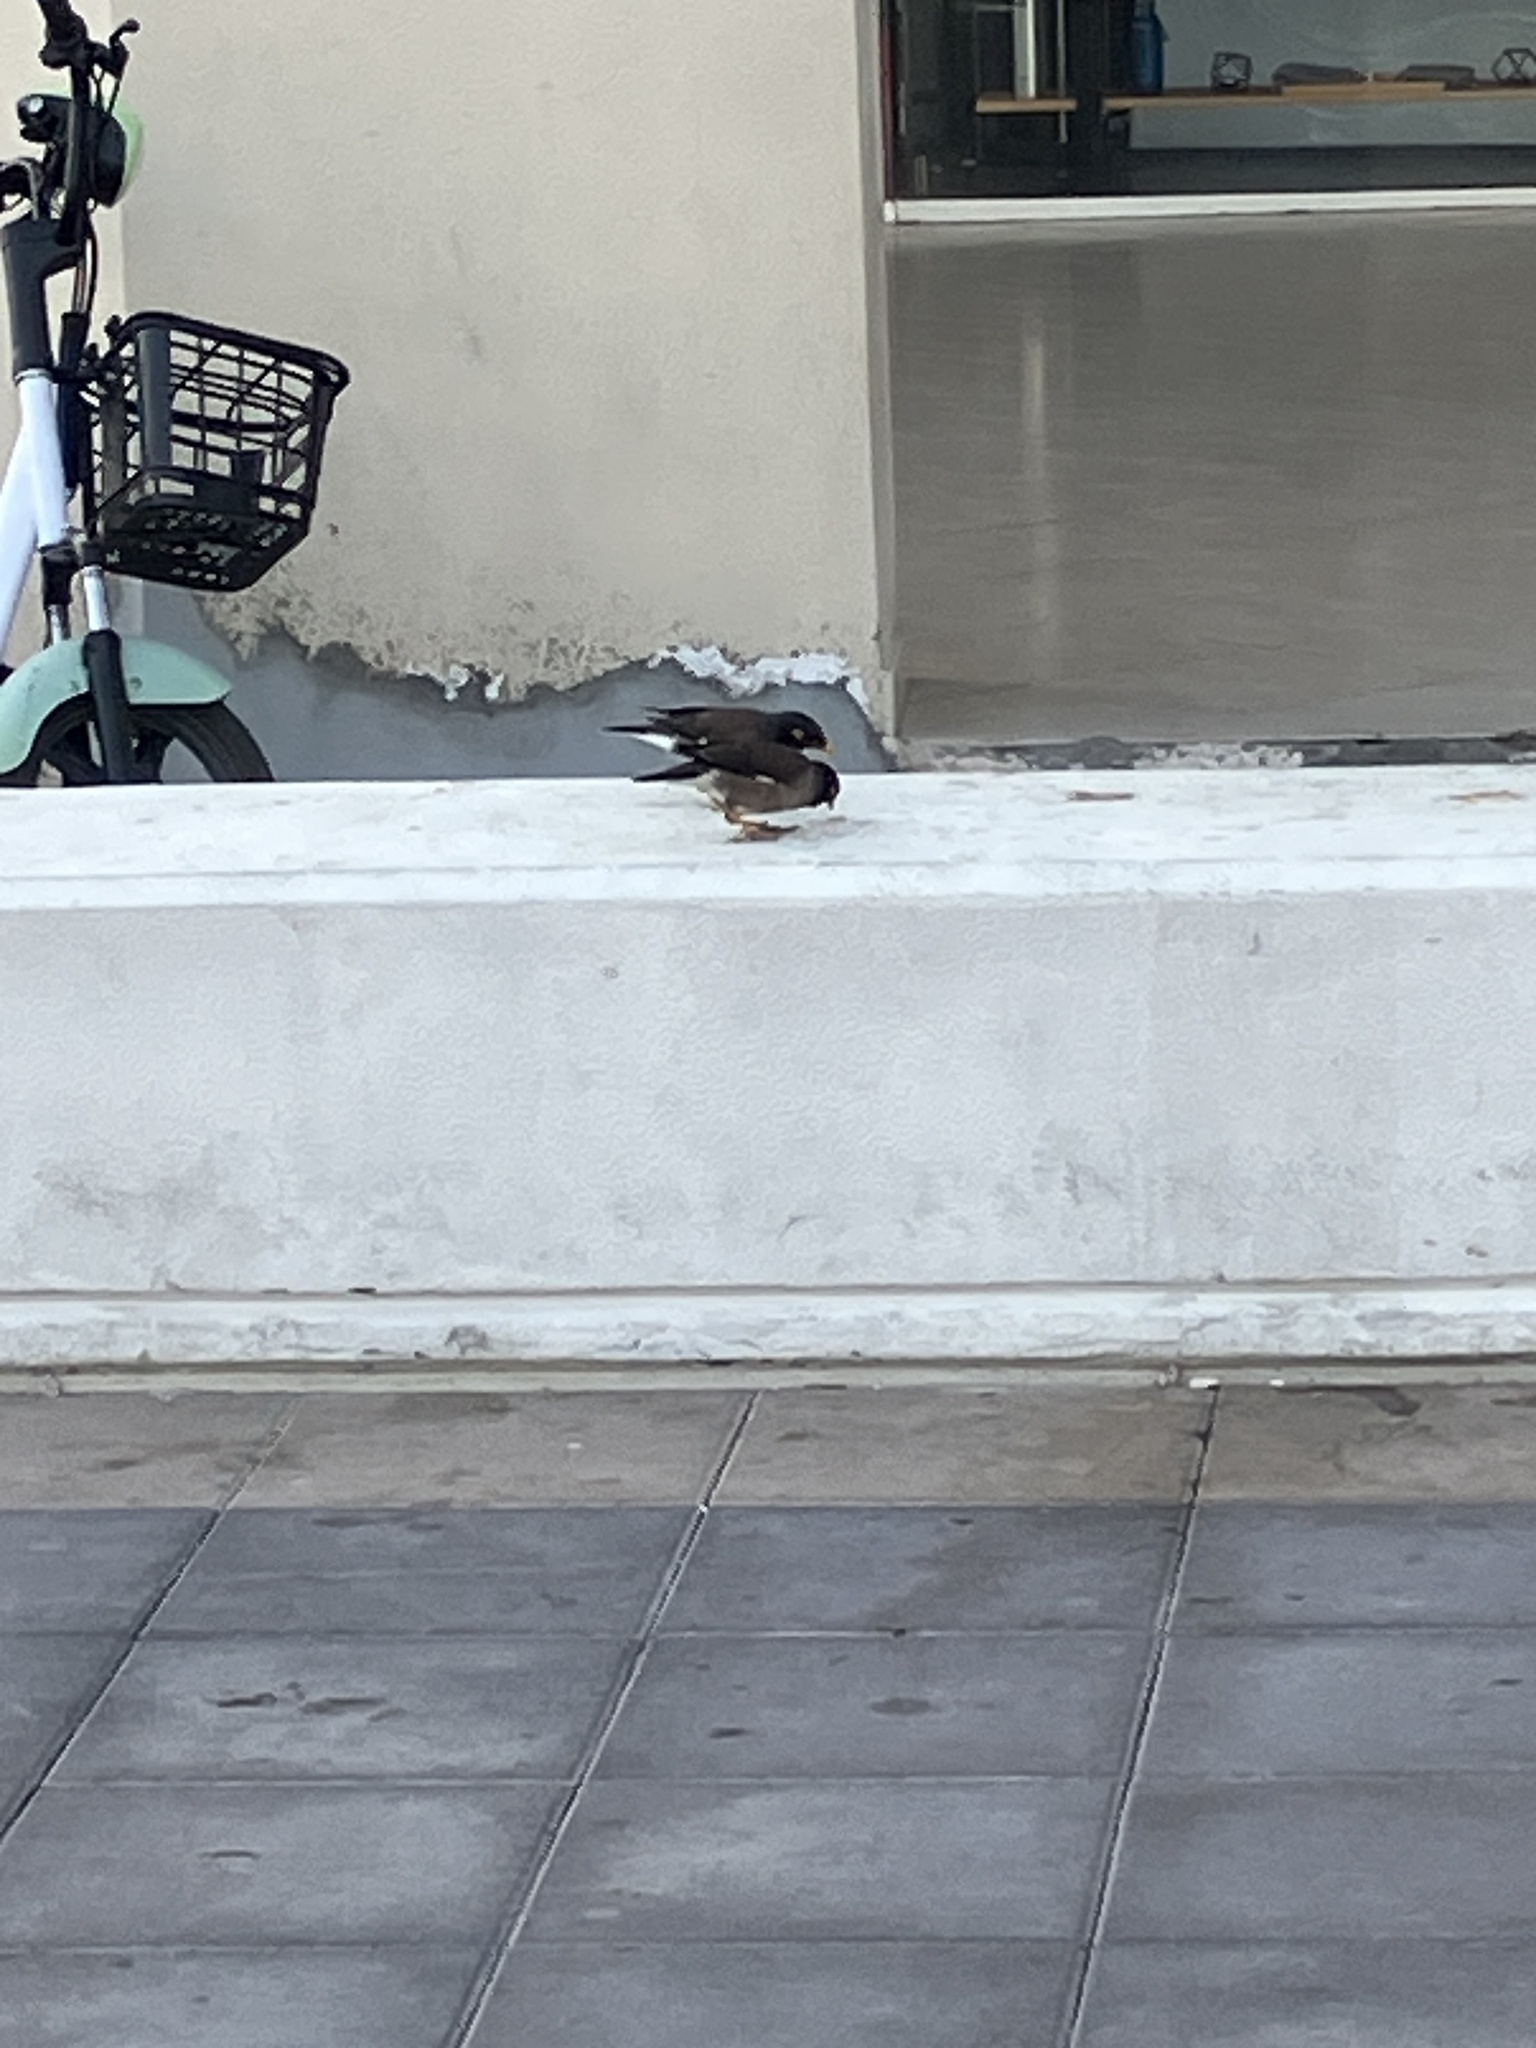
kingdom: Animalia
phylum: Chordata
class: Aves
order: Passeriformes
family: Sturnidae
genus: Acridotheres
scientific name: Acridotheres tristis
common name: Common myna
